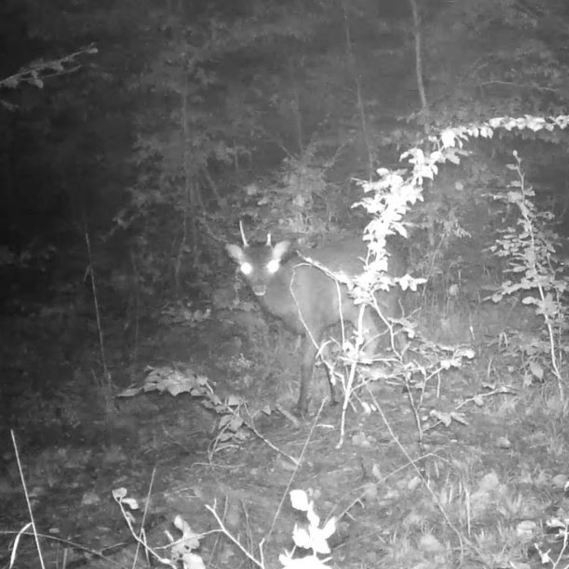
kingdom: Animalia
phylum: Chordata
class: Mammalia
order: Artiodactyla
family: Cervidae
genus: Capreolus
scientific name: Capreolus capreolus
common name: Western roe deer
